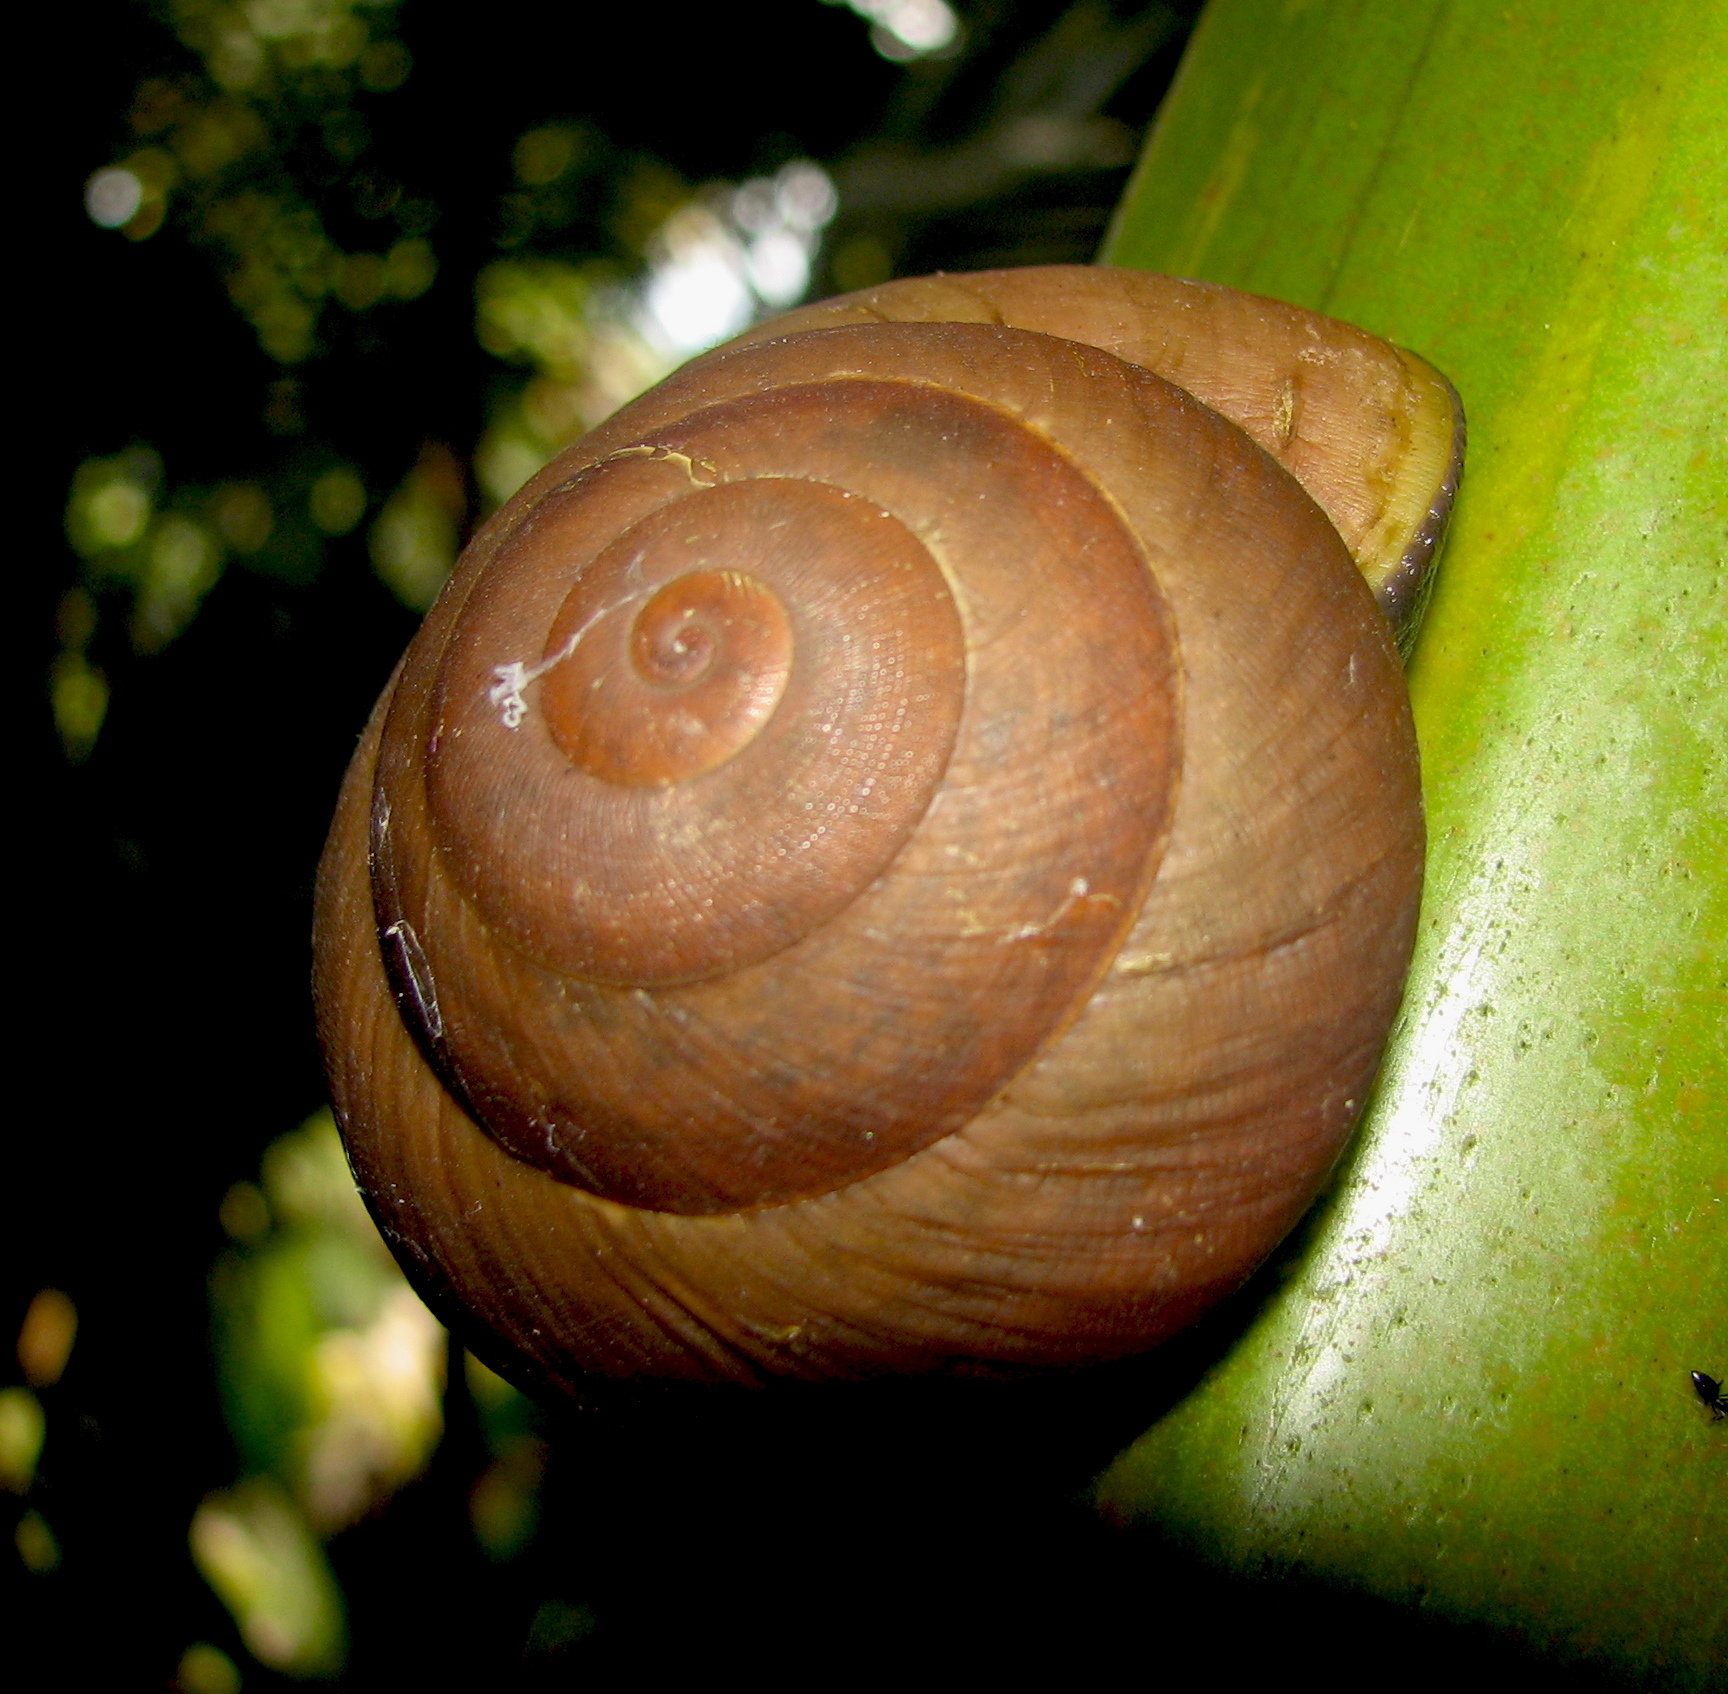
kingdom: Animalia
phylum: Mollusca
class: Gastropoda
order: Stylommatophora
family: Acavidae
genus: Stylodonta
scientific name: Stylodonta studeriana
